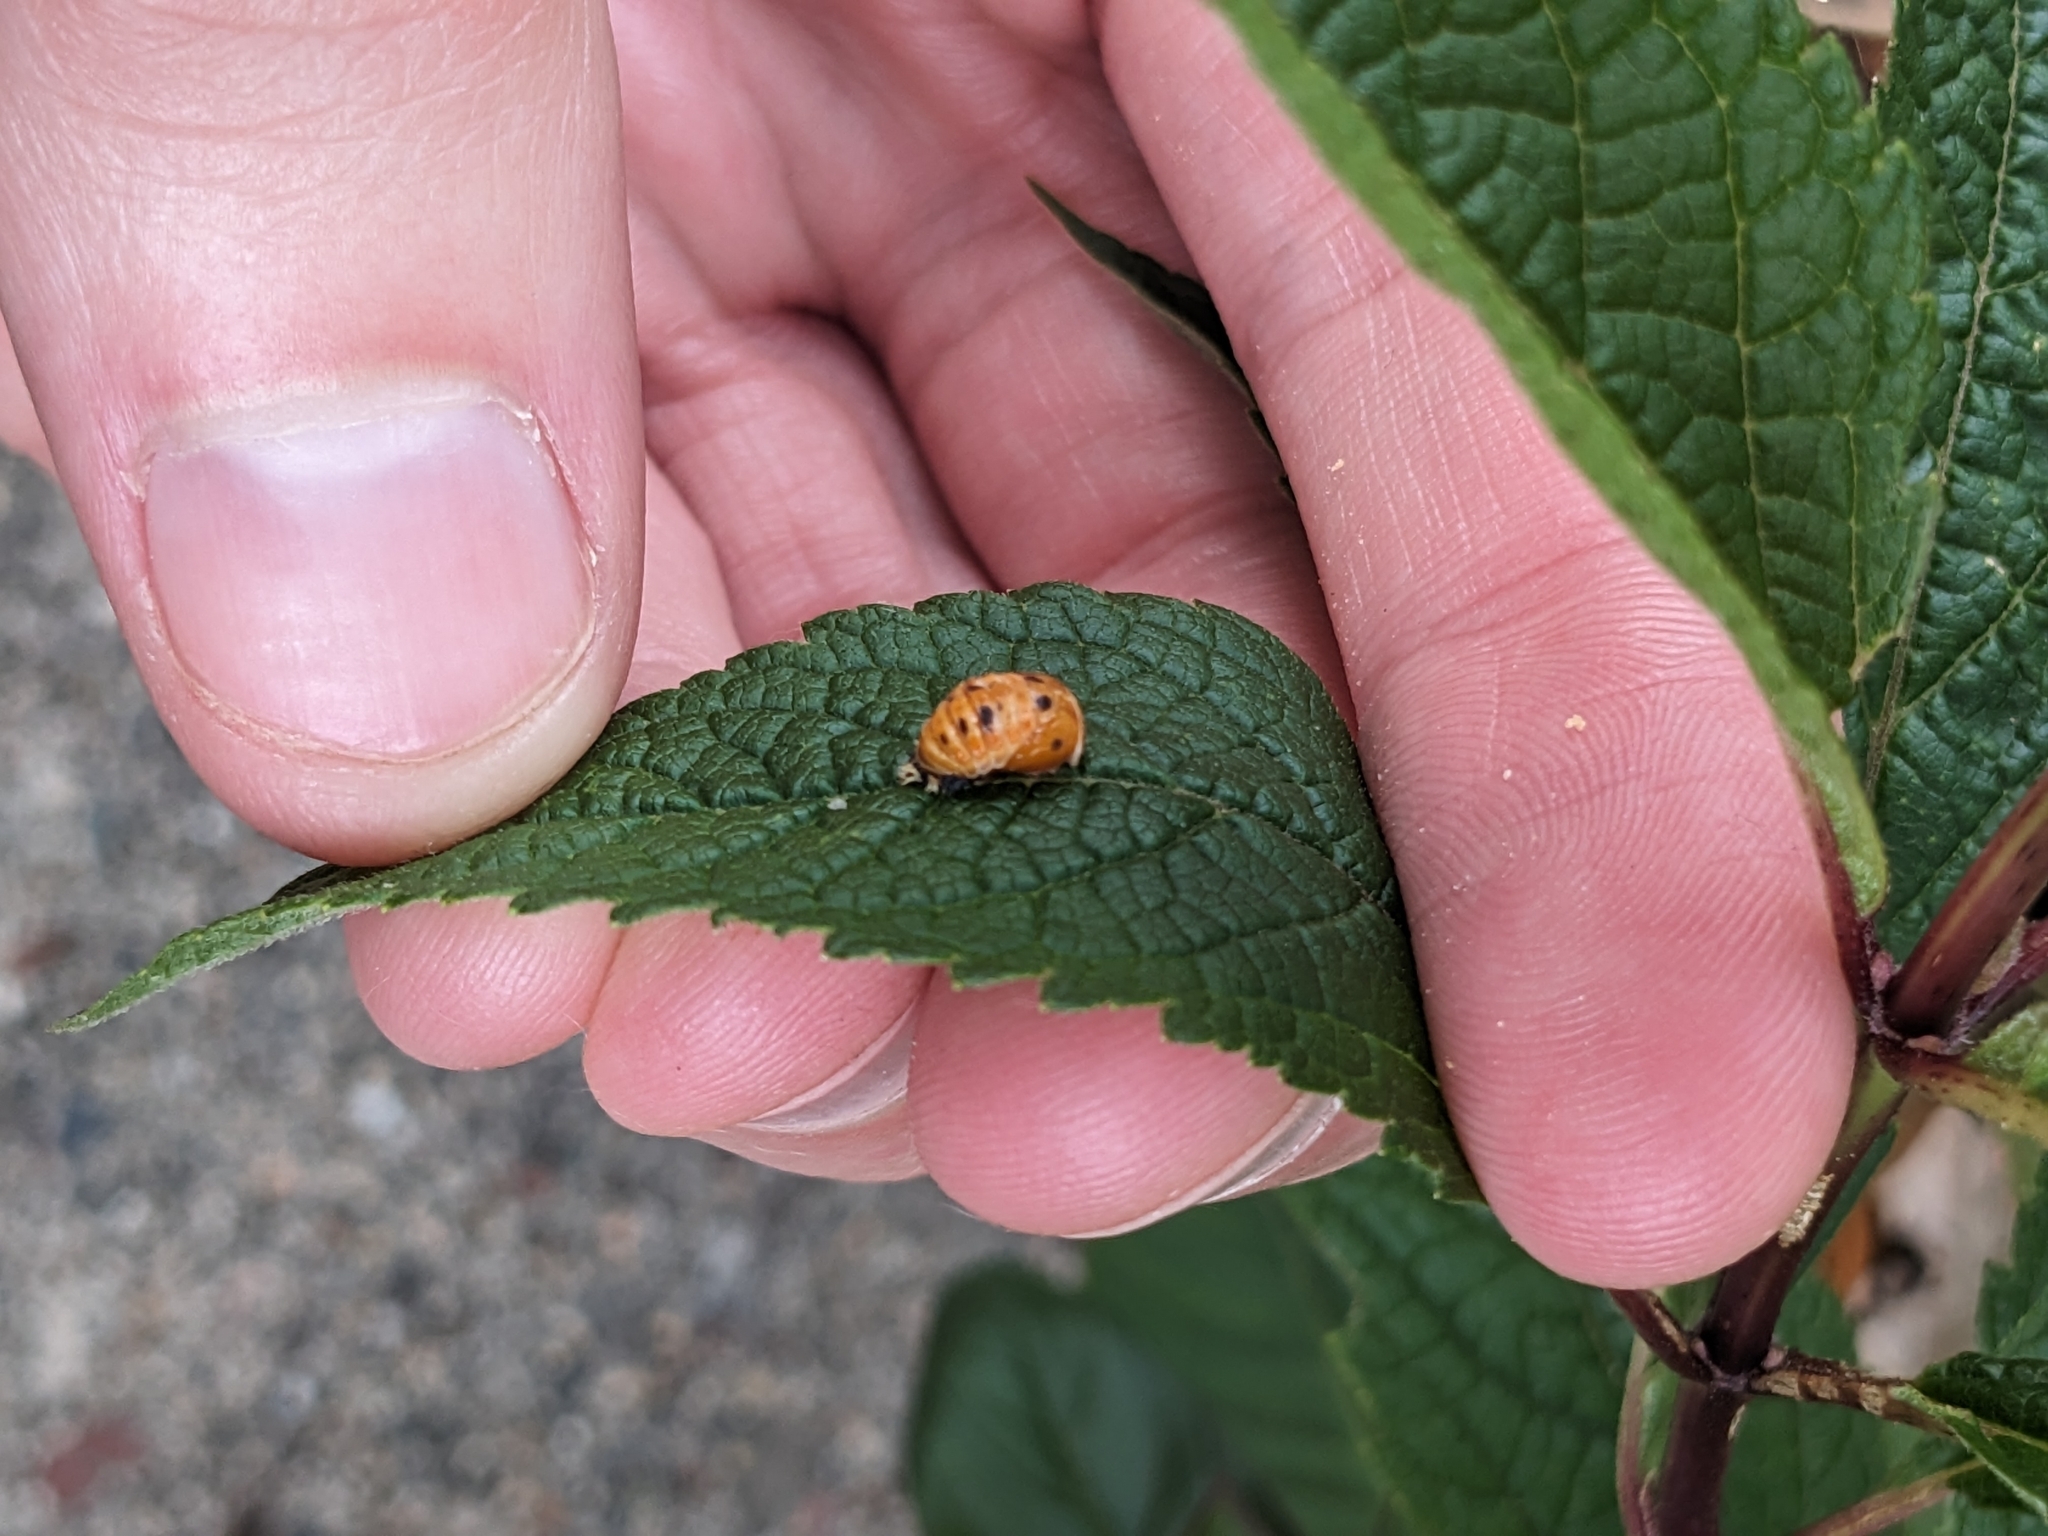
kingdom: Animalia
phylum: Arthropoda
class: Insecta
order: Coleoptera
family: Coccinellidae
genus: Harmonia
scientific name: Harmonia axyridis
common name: Harlequin ladybird
